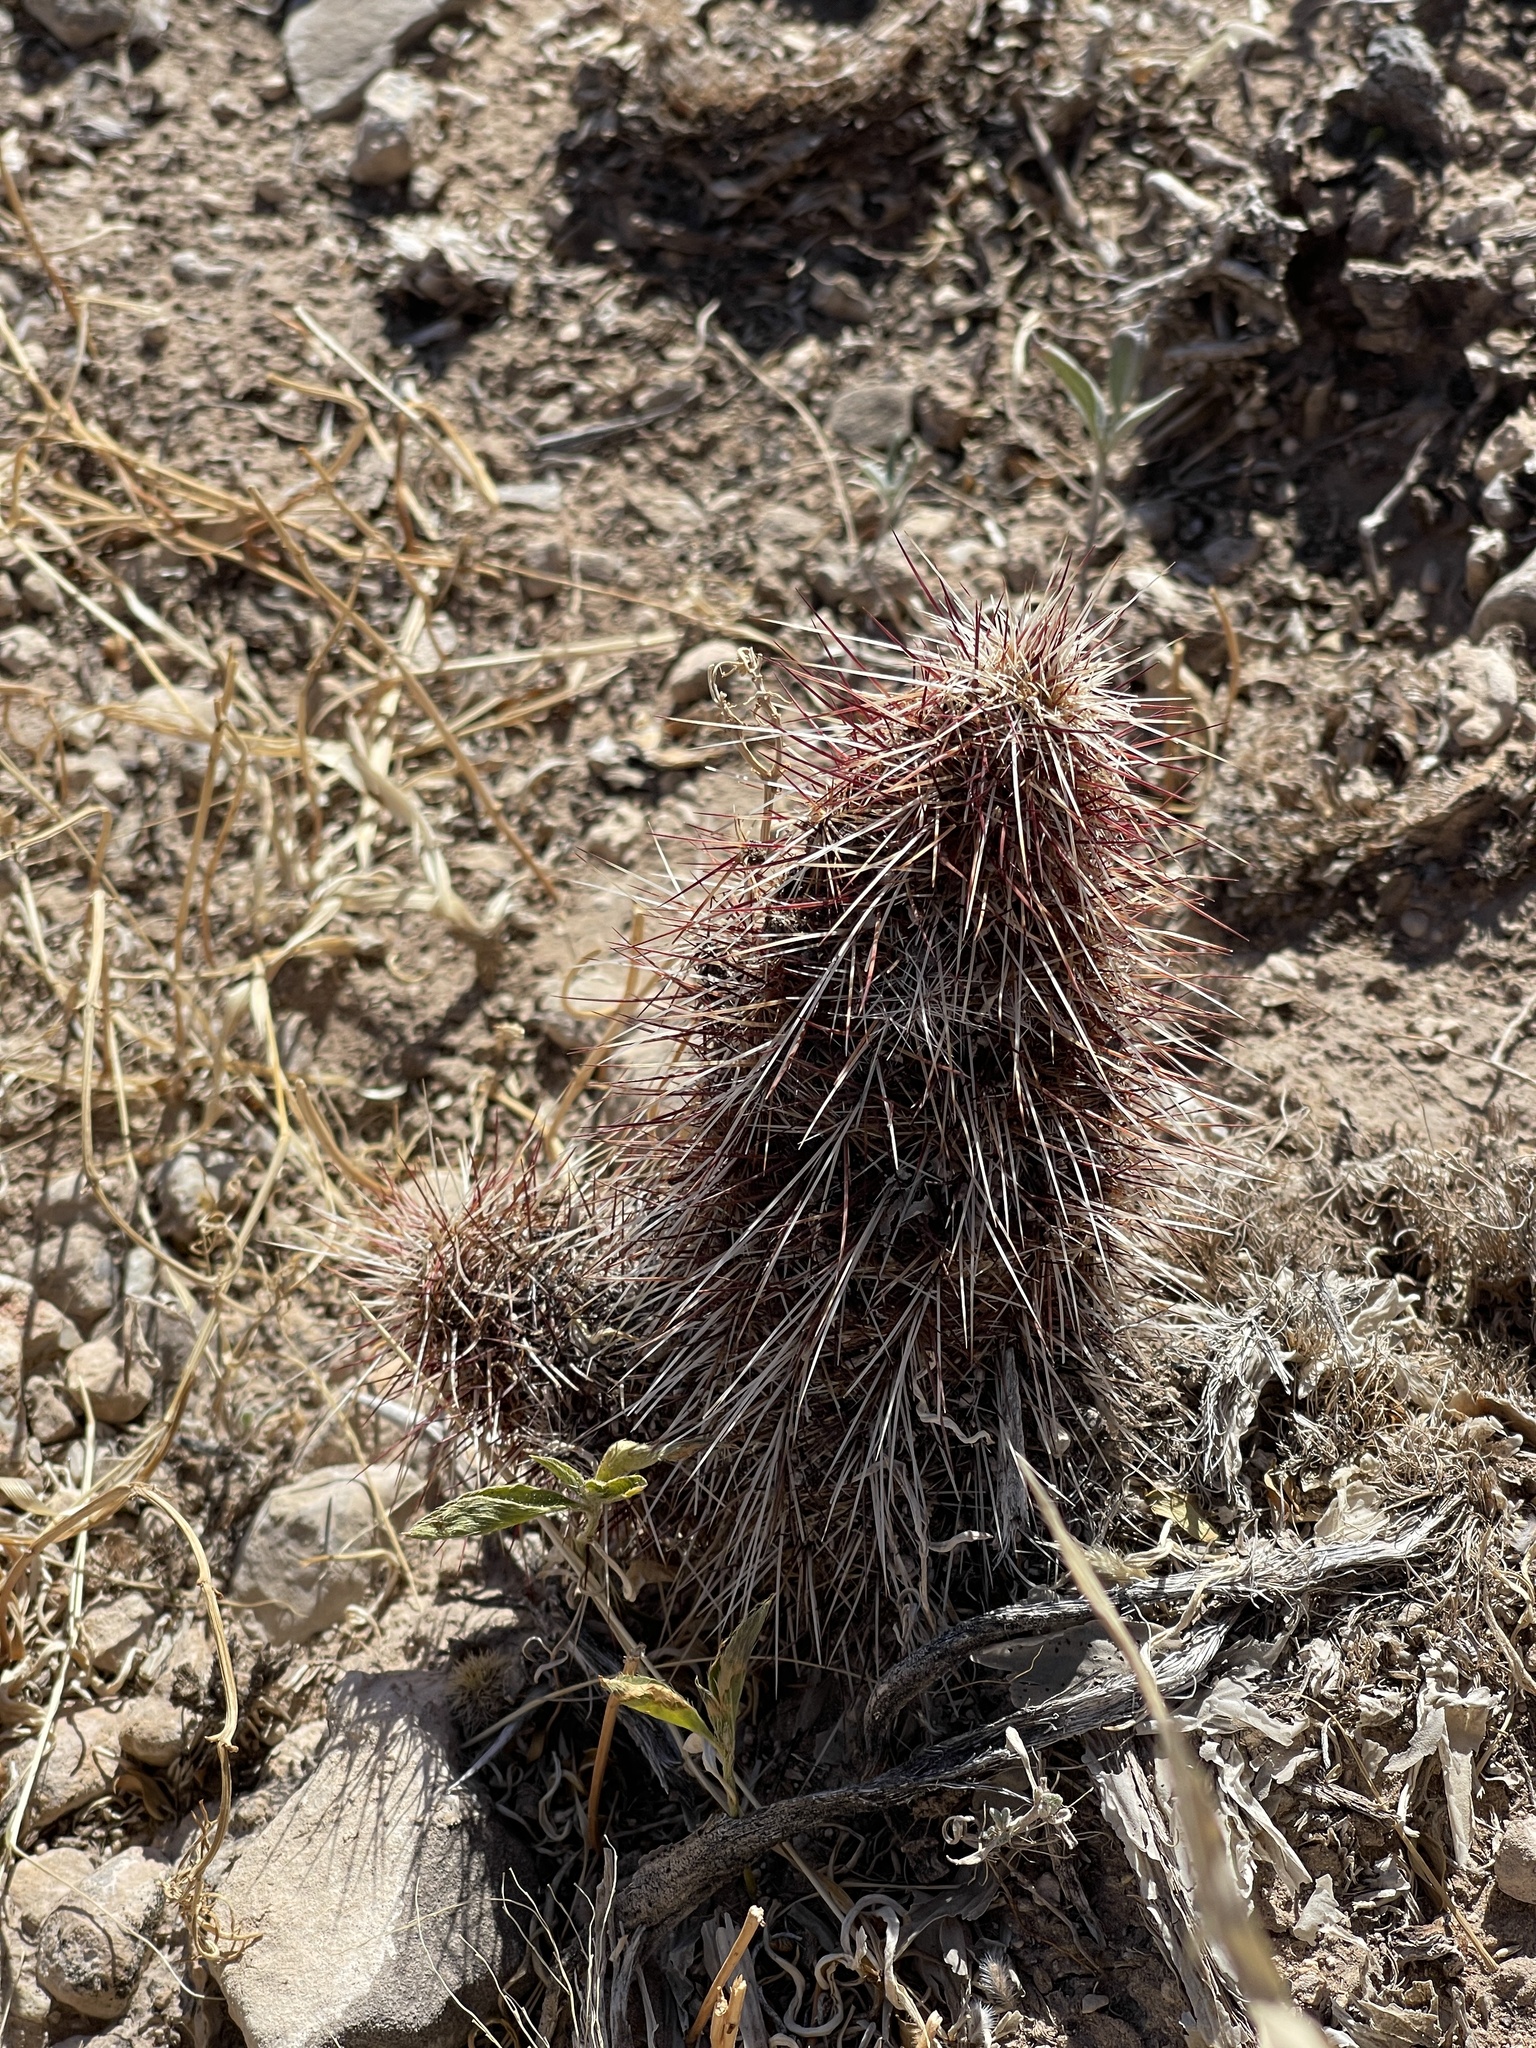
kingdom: Plantae
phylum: Tracheophyta
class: Magnoliopsida
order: Caryophyllales
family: Cactaceae
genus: Echinocereus
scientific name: Echinocereus viridiflorus
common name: Nylon hedgehog cactus
